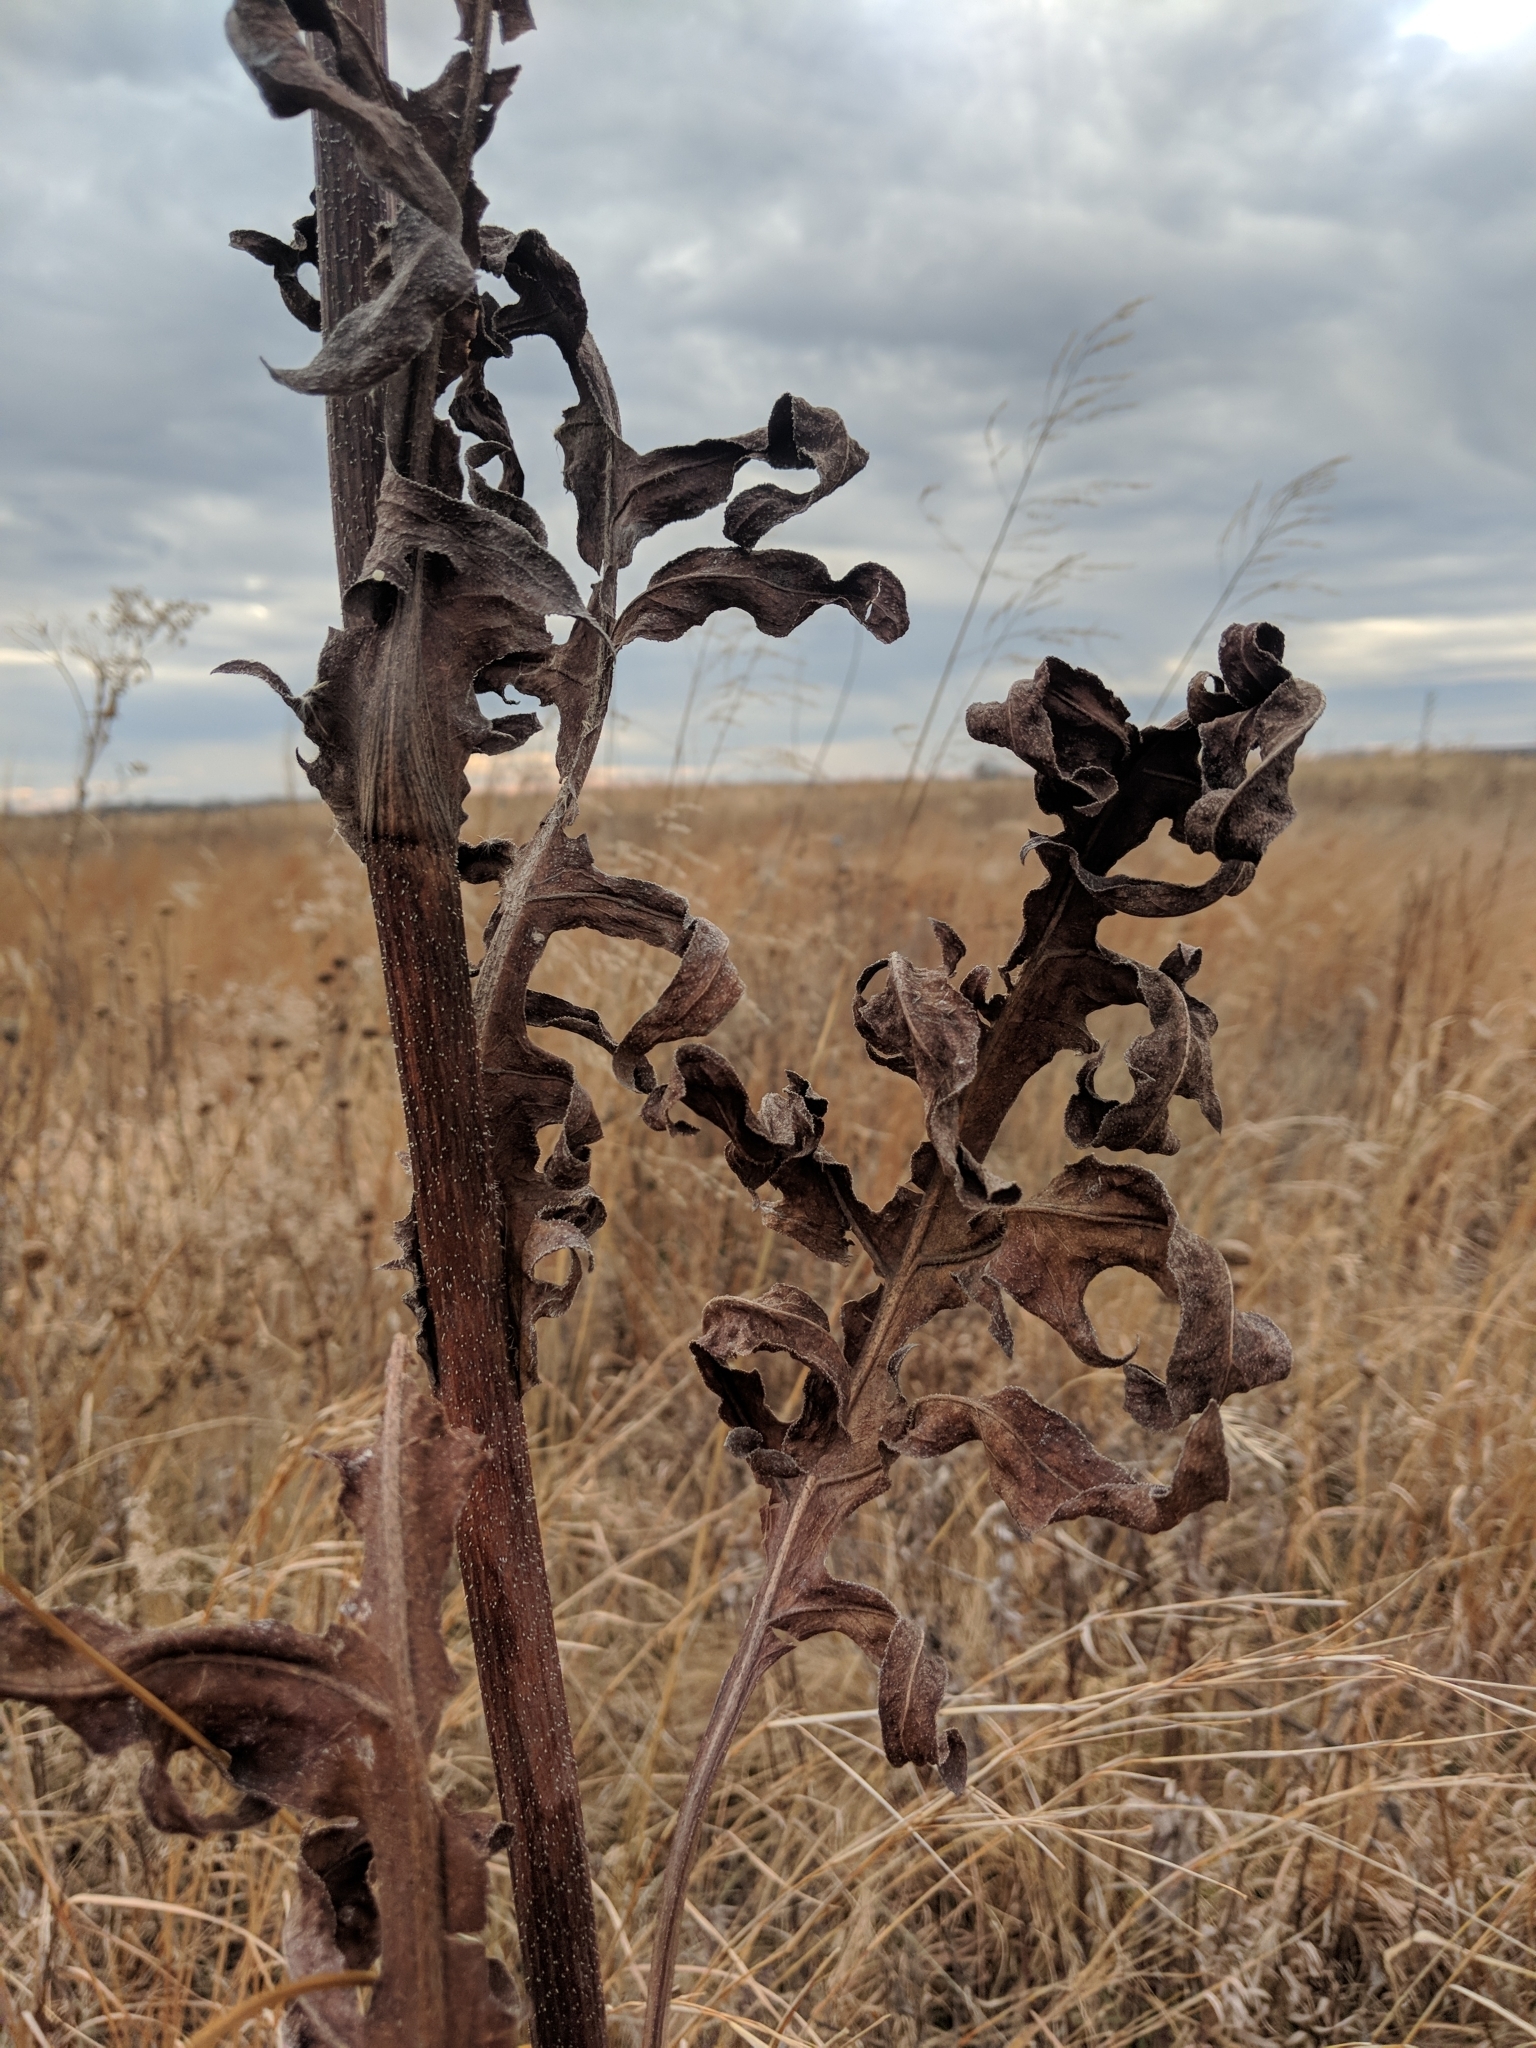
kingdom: Plantae
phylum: Tracheophyta
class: Magnoliopsida
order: Asterales
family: Asteraceae
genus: Silphium
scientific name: Silphium laciniatum
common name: Polarplant
